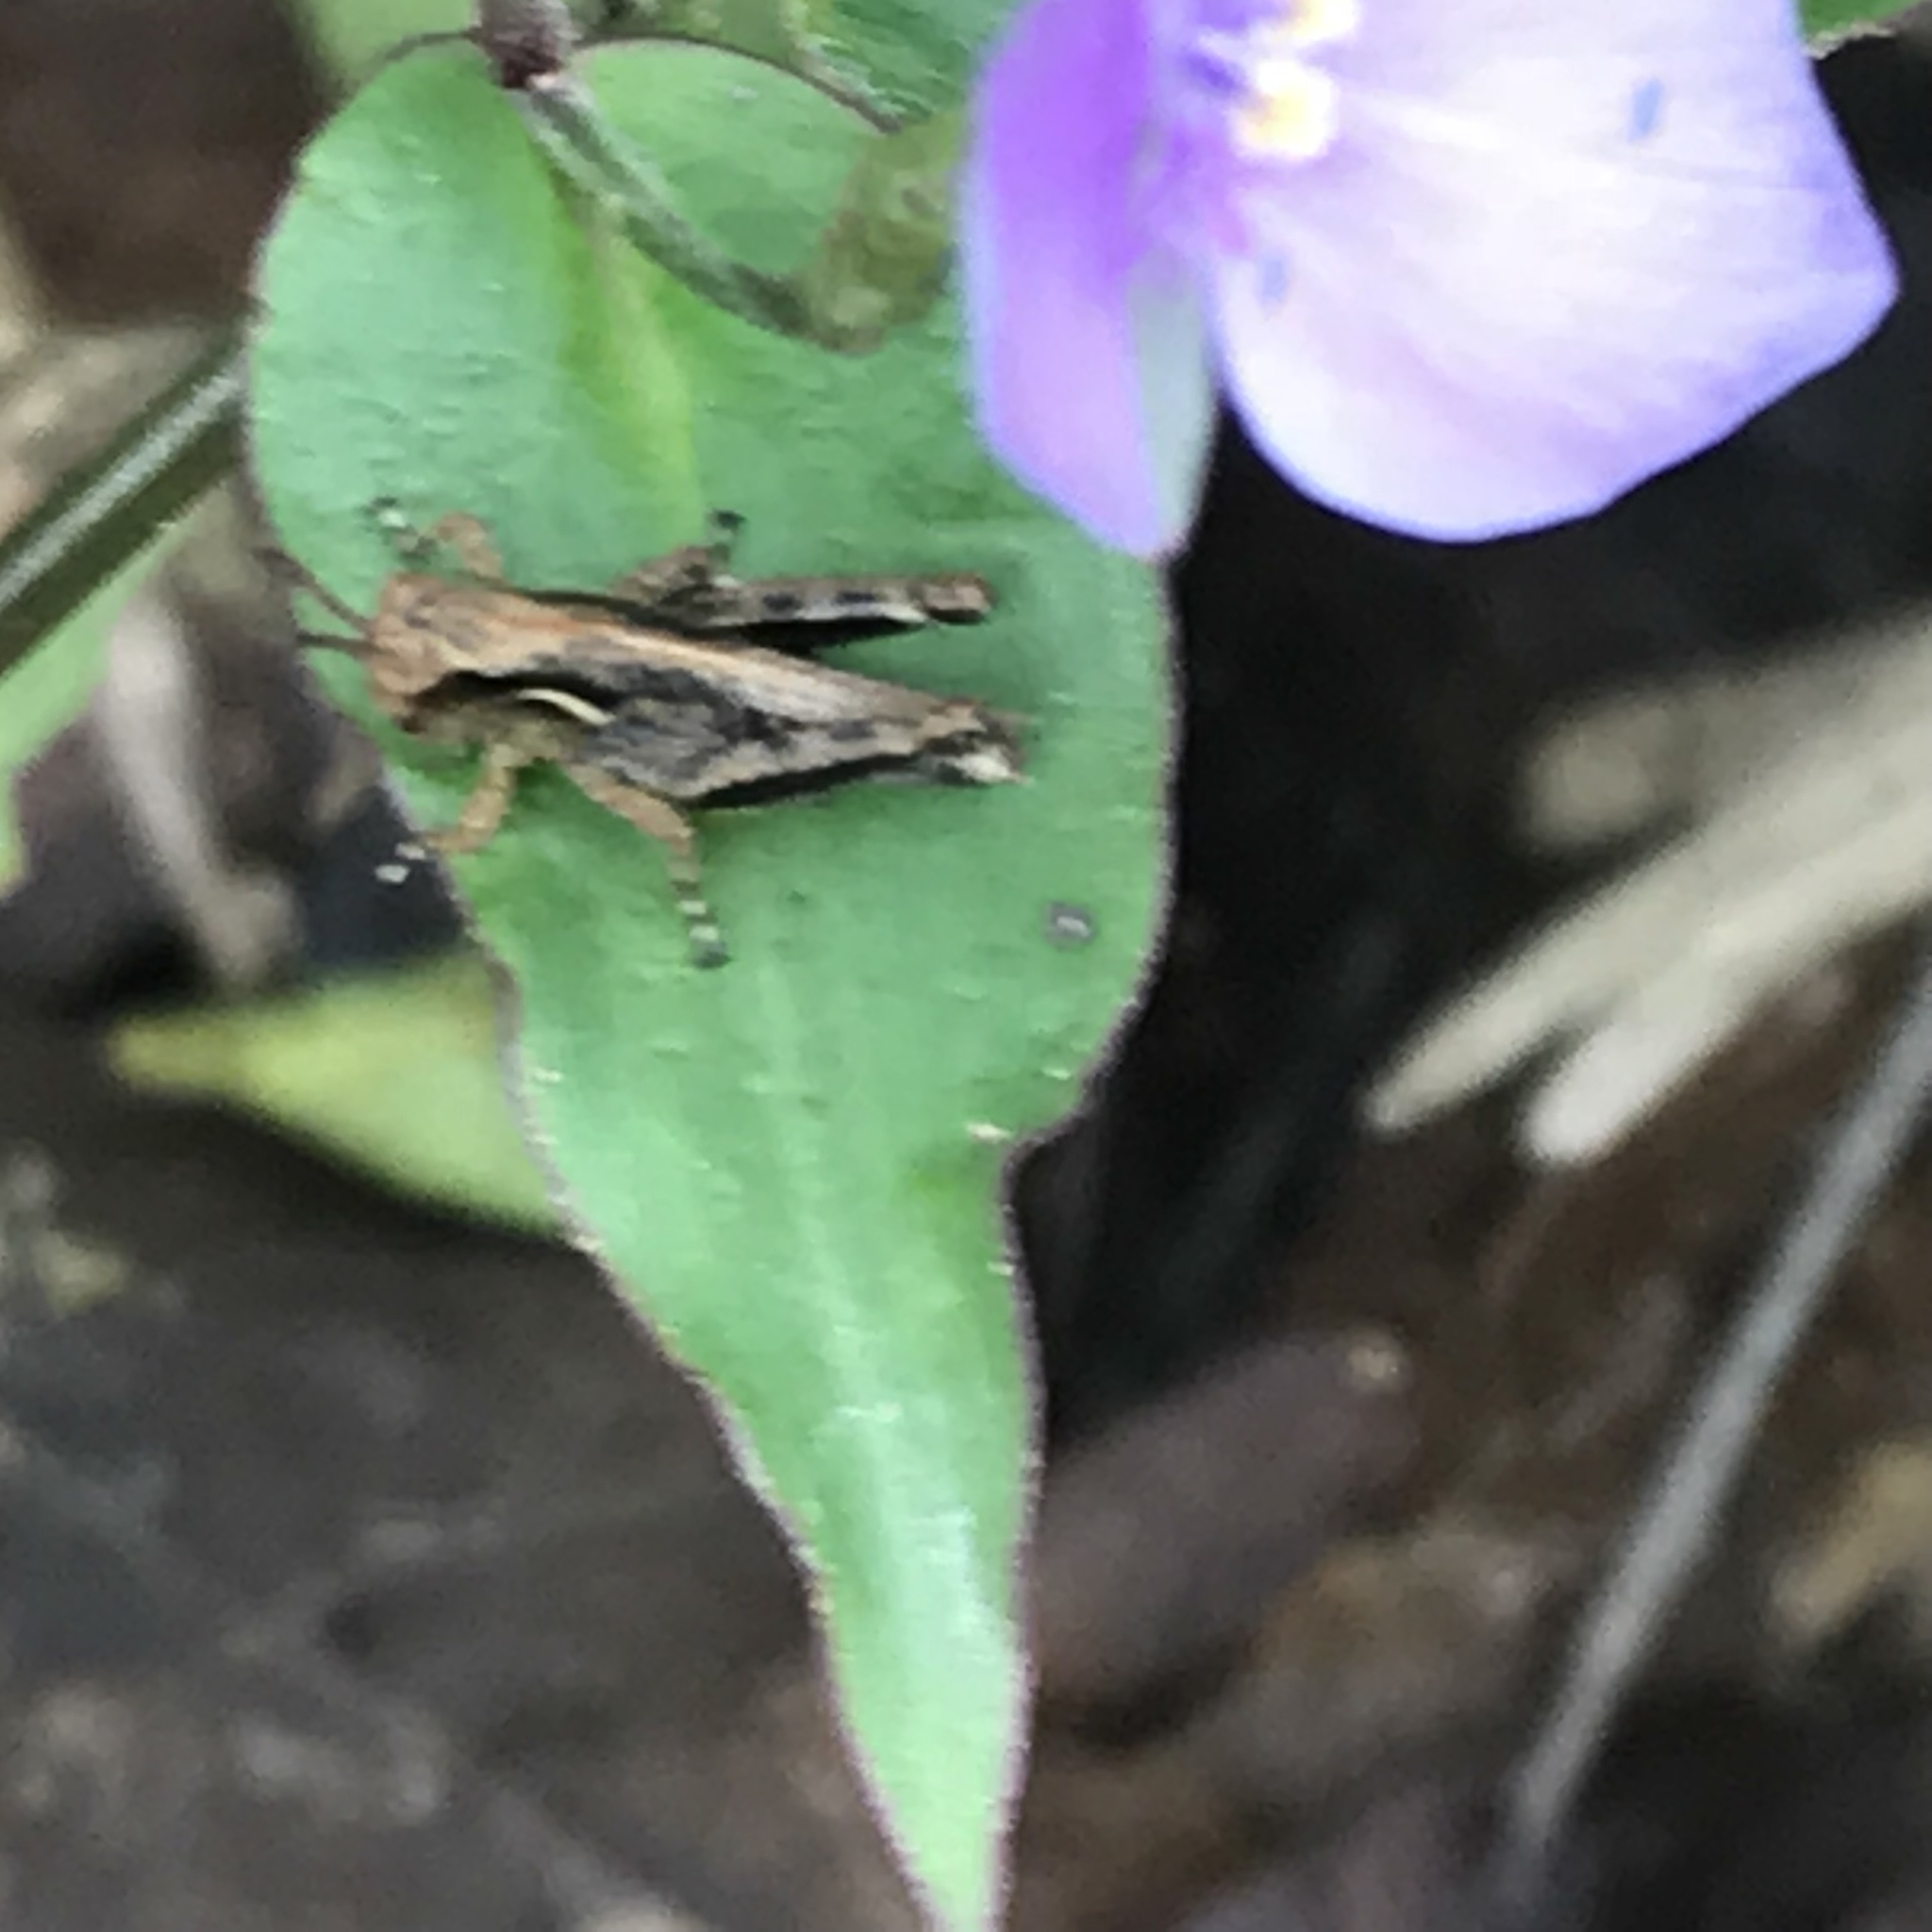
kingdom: Plantae
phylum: Tracheophyta
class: Liliopsida
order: Commelinales
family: Commelinaceae
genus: Tinantia
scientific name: Tinantia pringlei
